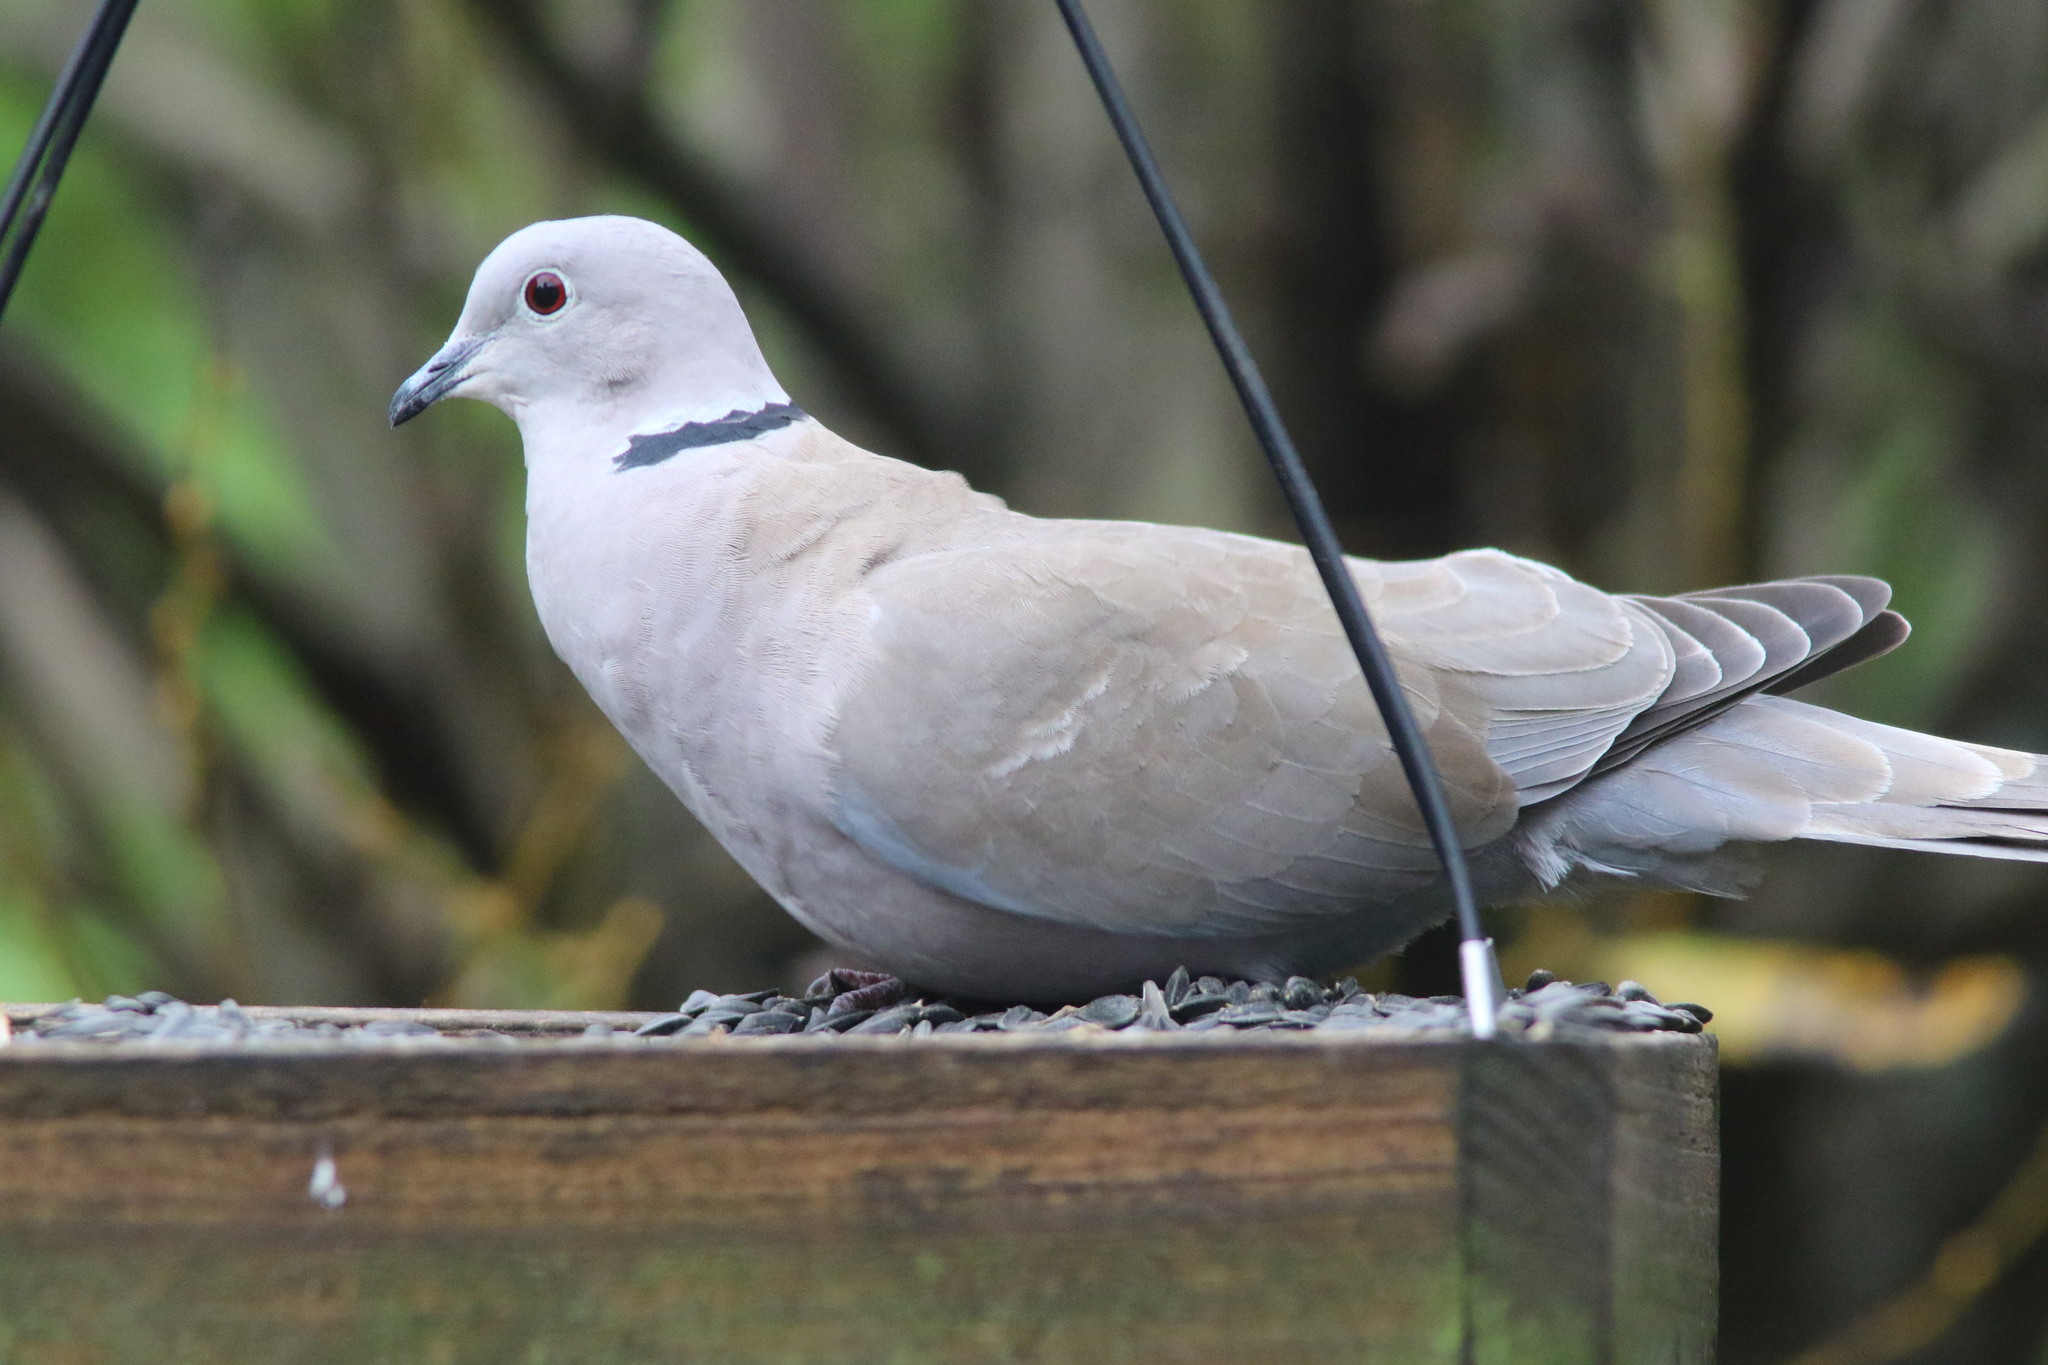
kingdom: Animalia
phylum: Chordata
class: Aves
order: Columbiformes
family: Columbidae
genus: Streptopelia
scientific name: Streptopelia decaocto
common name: Eurasian collared dove
